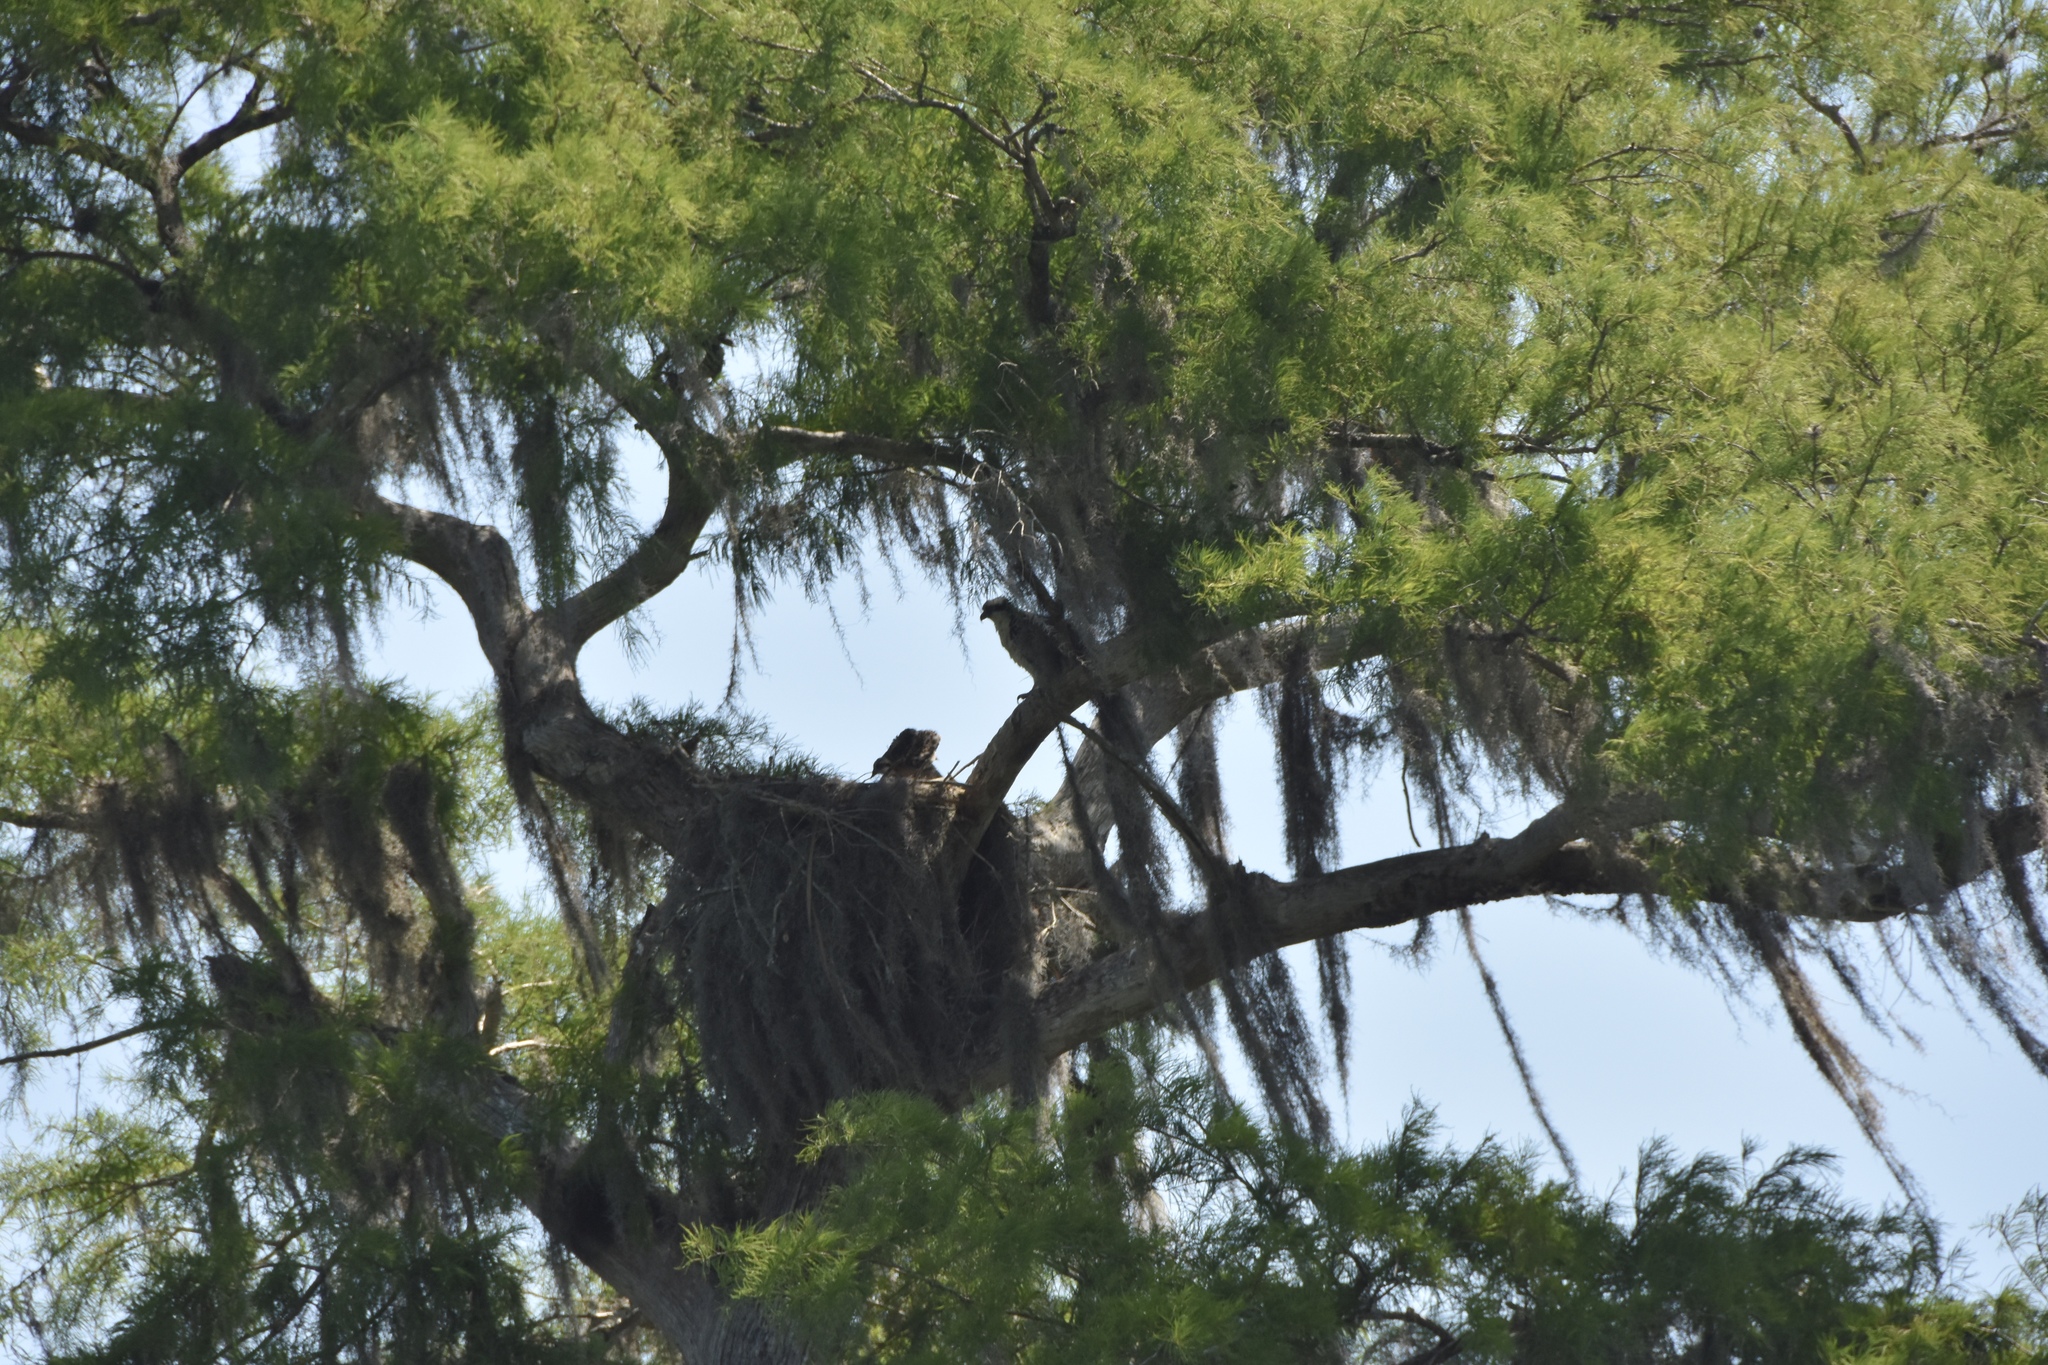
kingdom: Animalia
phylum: Chordata
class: Aves
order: Accipitriformes
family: Pandionidae
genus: Pandion
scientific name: Pandion haliaetus
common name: Osprey
